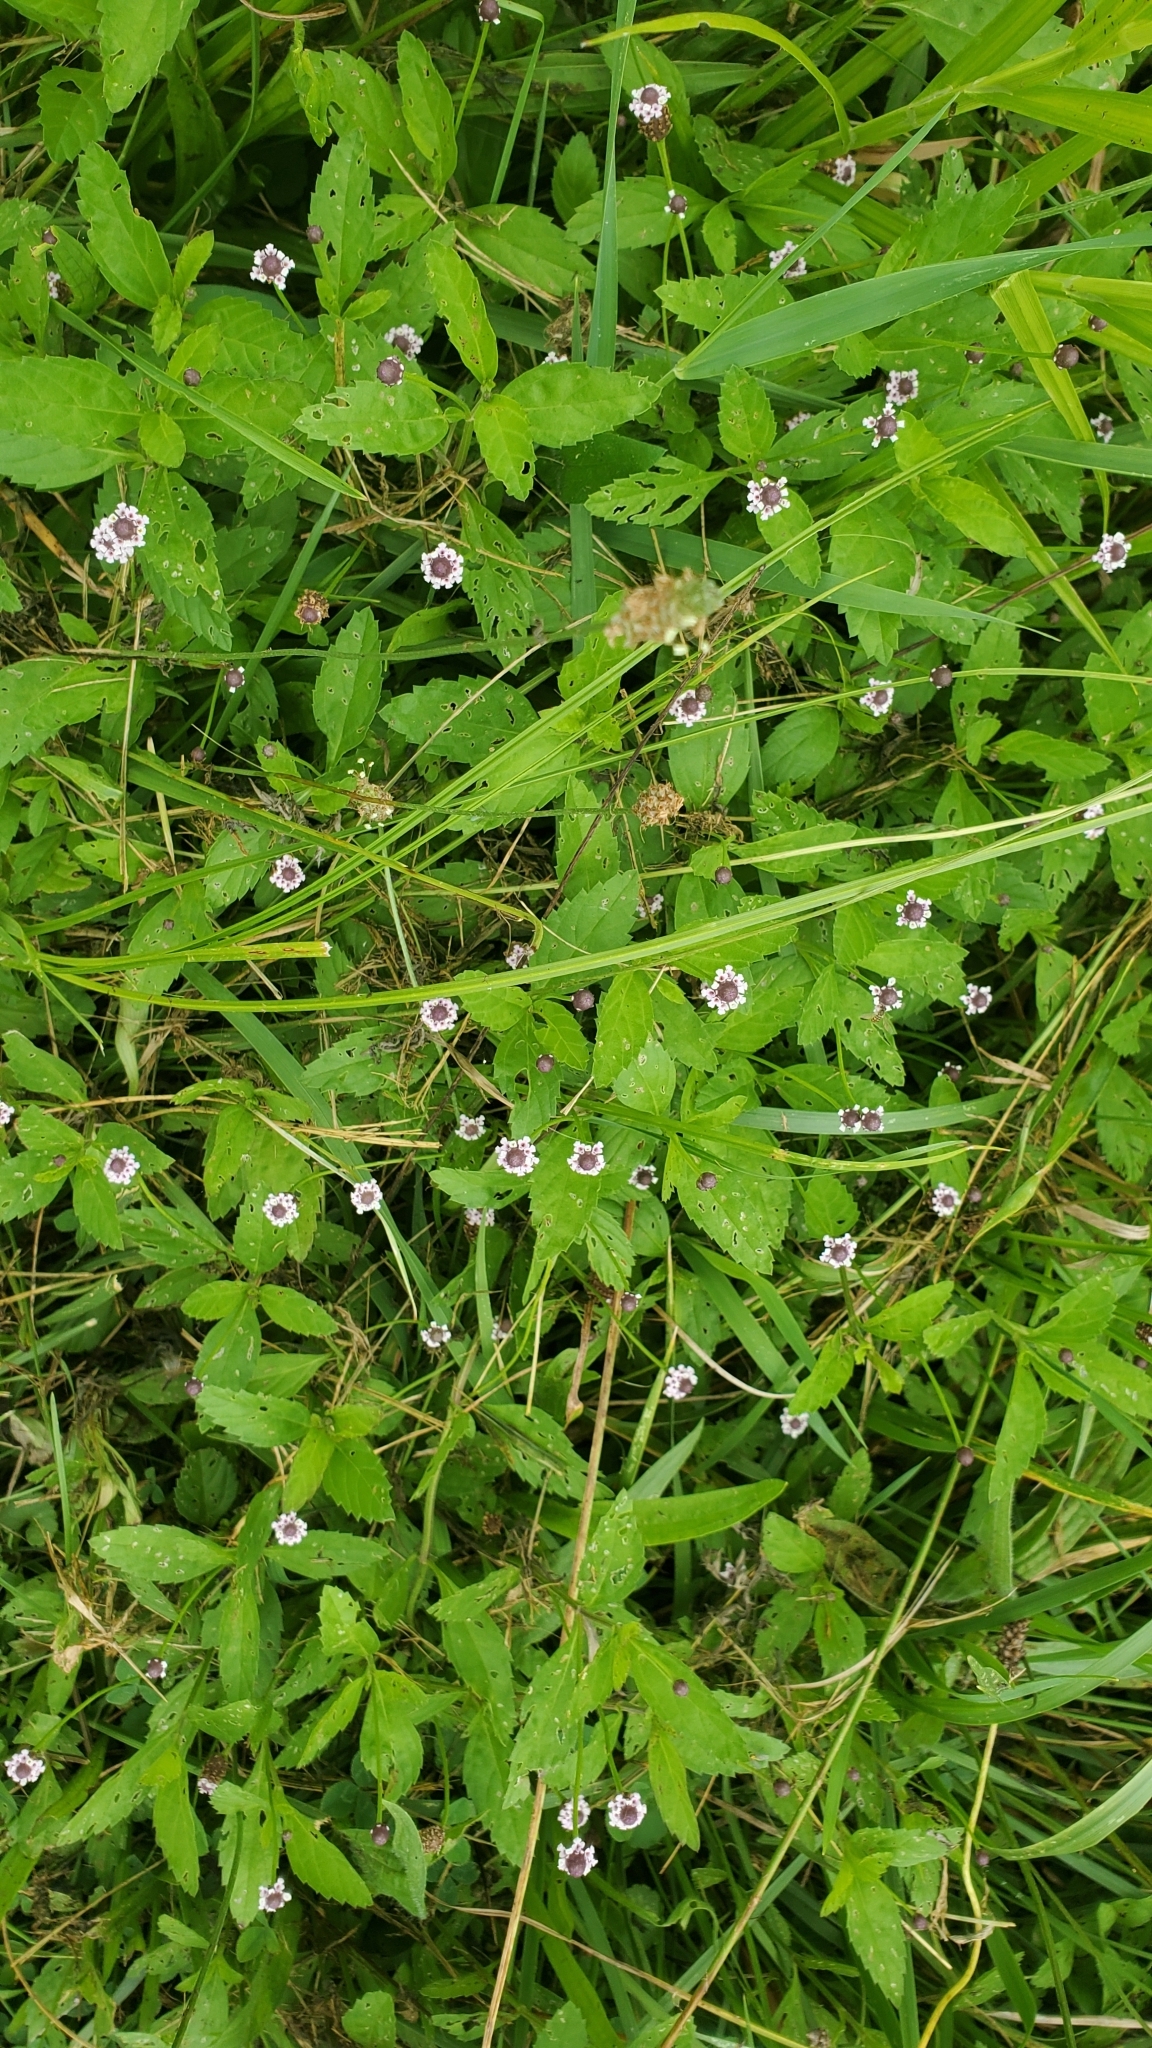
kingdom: Plantae
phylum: Tracheophyta
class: Magnoliopsida
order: Lamiales
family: Verbenaceae
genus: Phyla
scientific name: Phyla lanceolata
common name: Northern fogfruit
